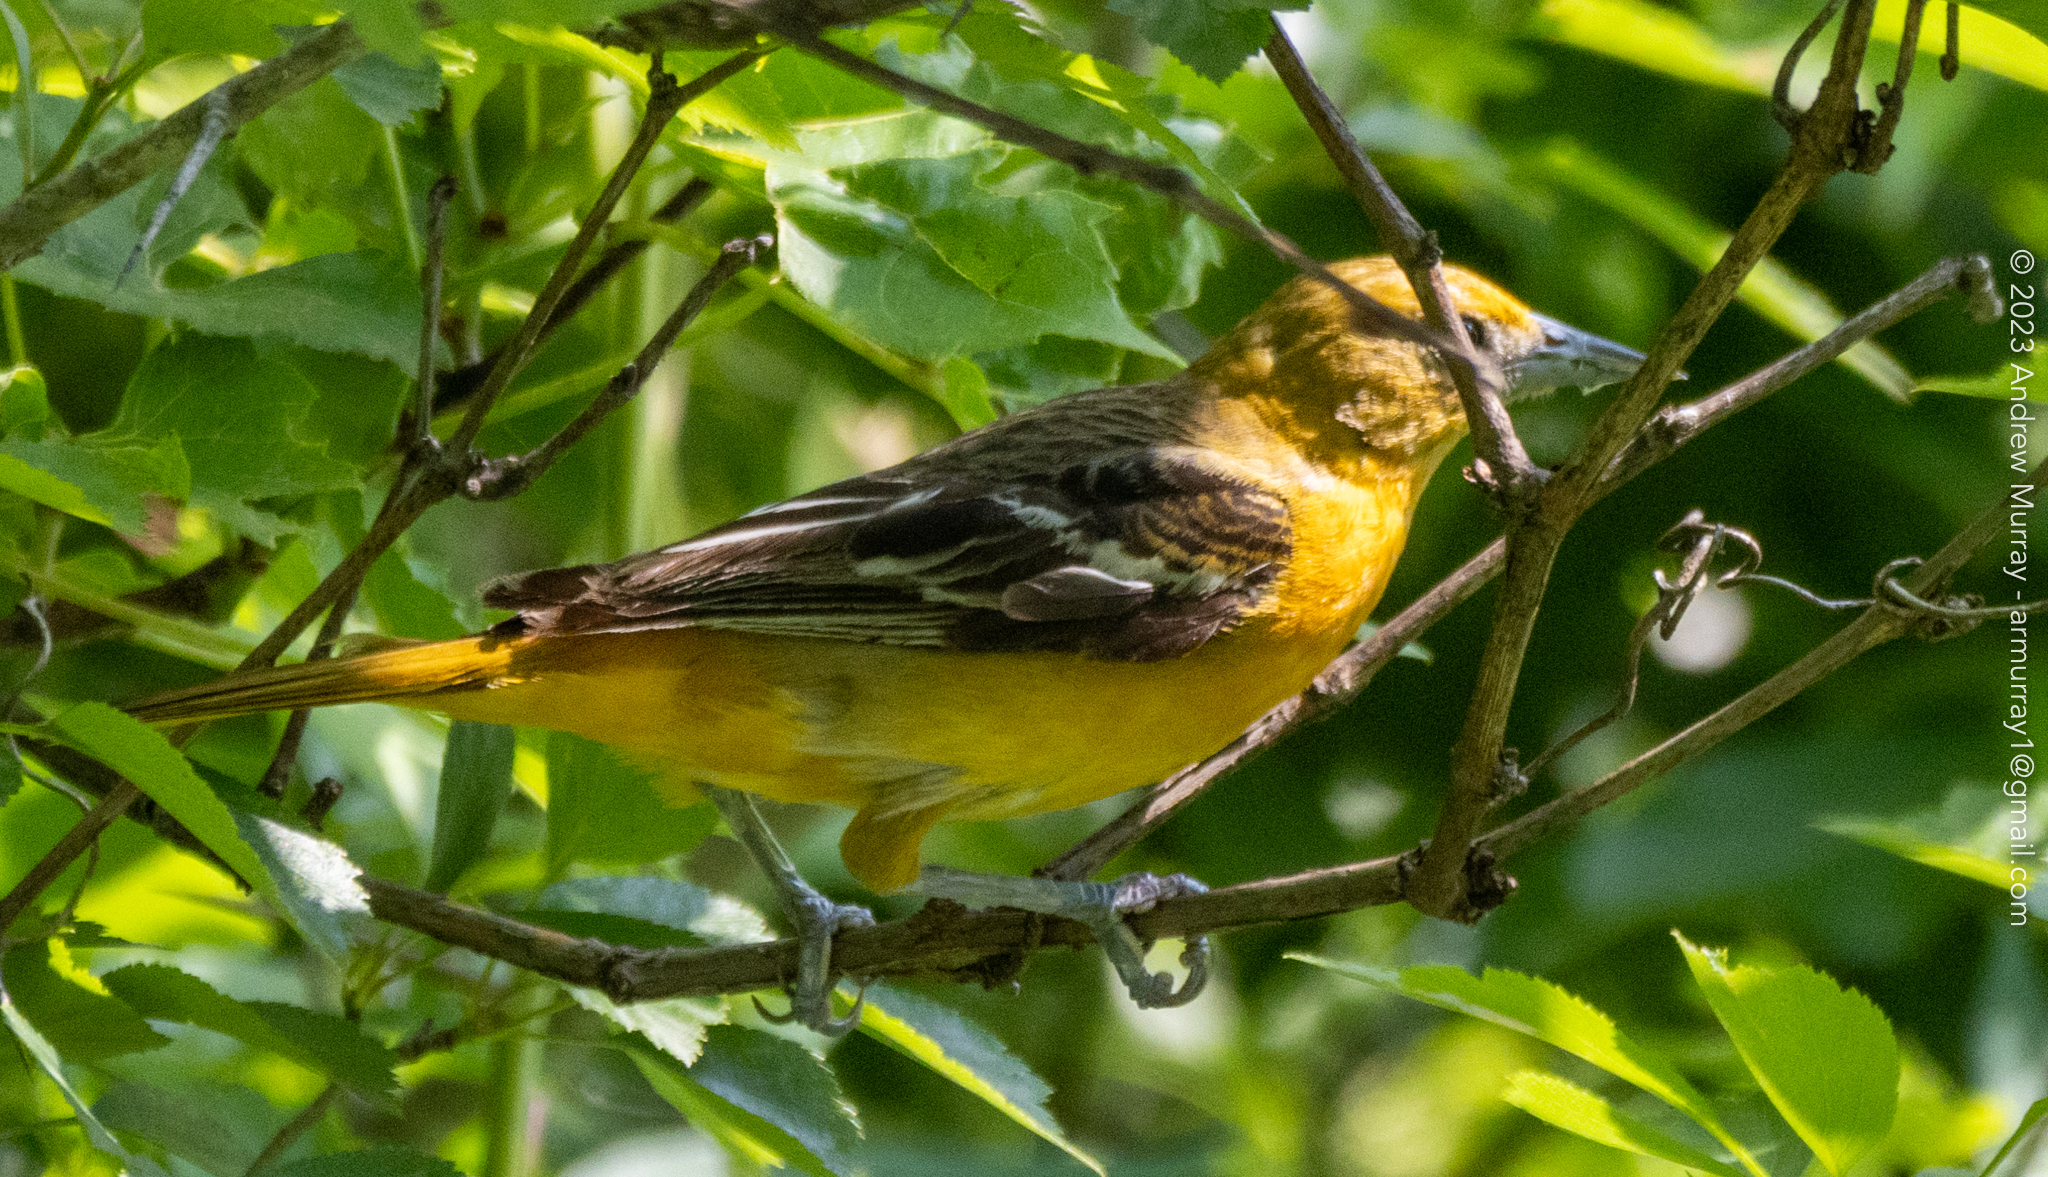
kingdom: Animalia
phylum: Chordata
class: Aves
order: Passeriformes
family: Icteridae
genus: Icterus
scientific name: Icterus galbula
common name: Baltimore oriole
